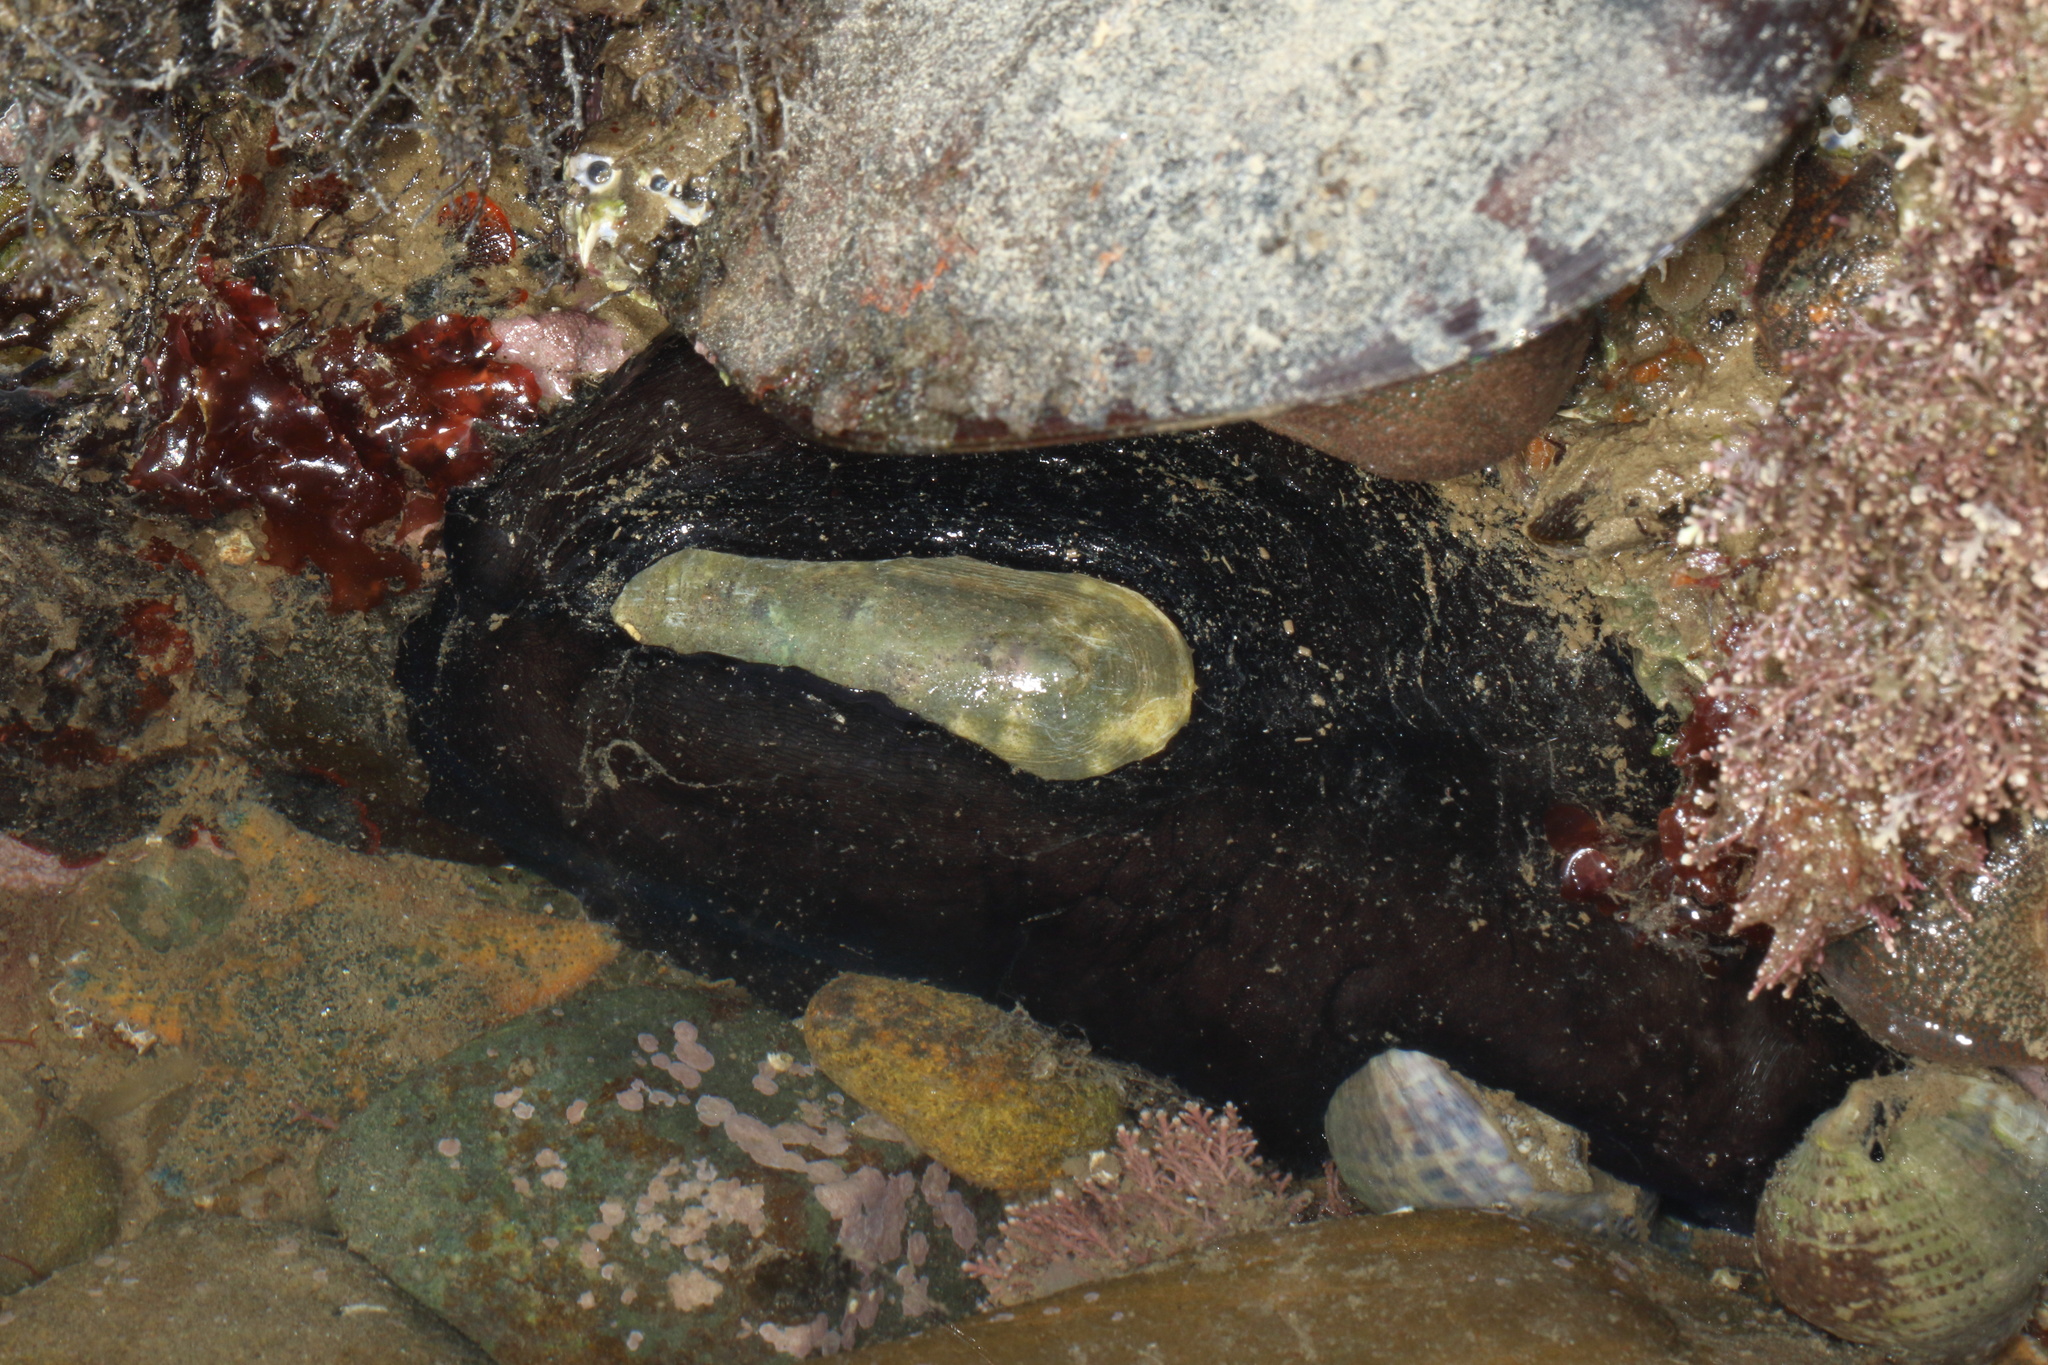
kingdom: Animalia
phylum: Mollusca
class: Gastropoda
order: Lepetellida
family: Fissurellidae
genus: Scutus
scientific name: Scutus breviculus
